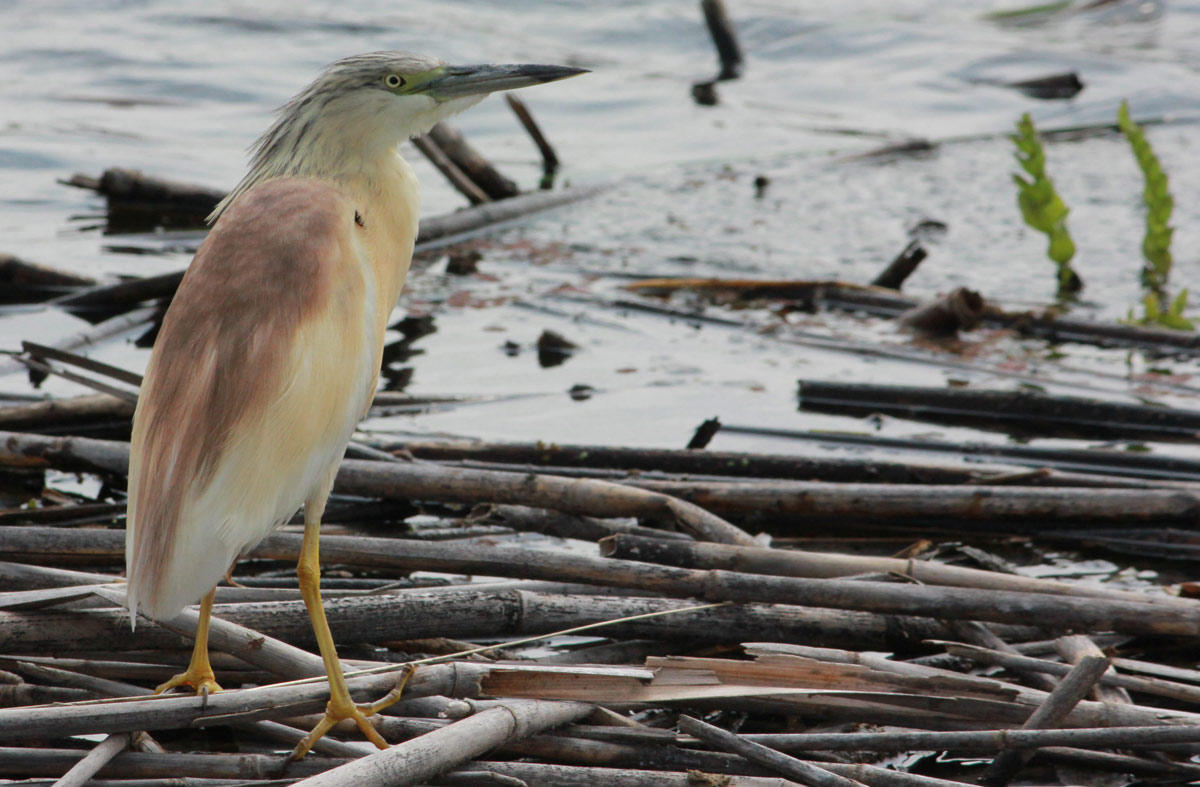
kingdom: Animalia
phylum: Chordata
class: Aves
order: Pelecaniformes
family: Ardeidae
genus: Ardeola
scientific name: Ardeola ralloides
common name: Squacco heron
